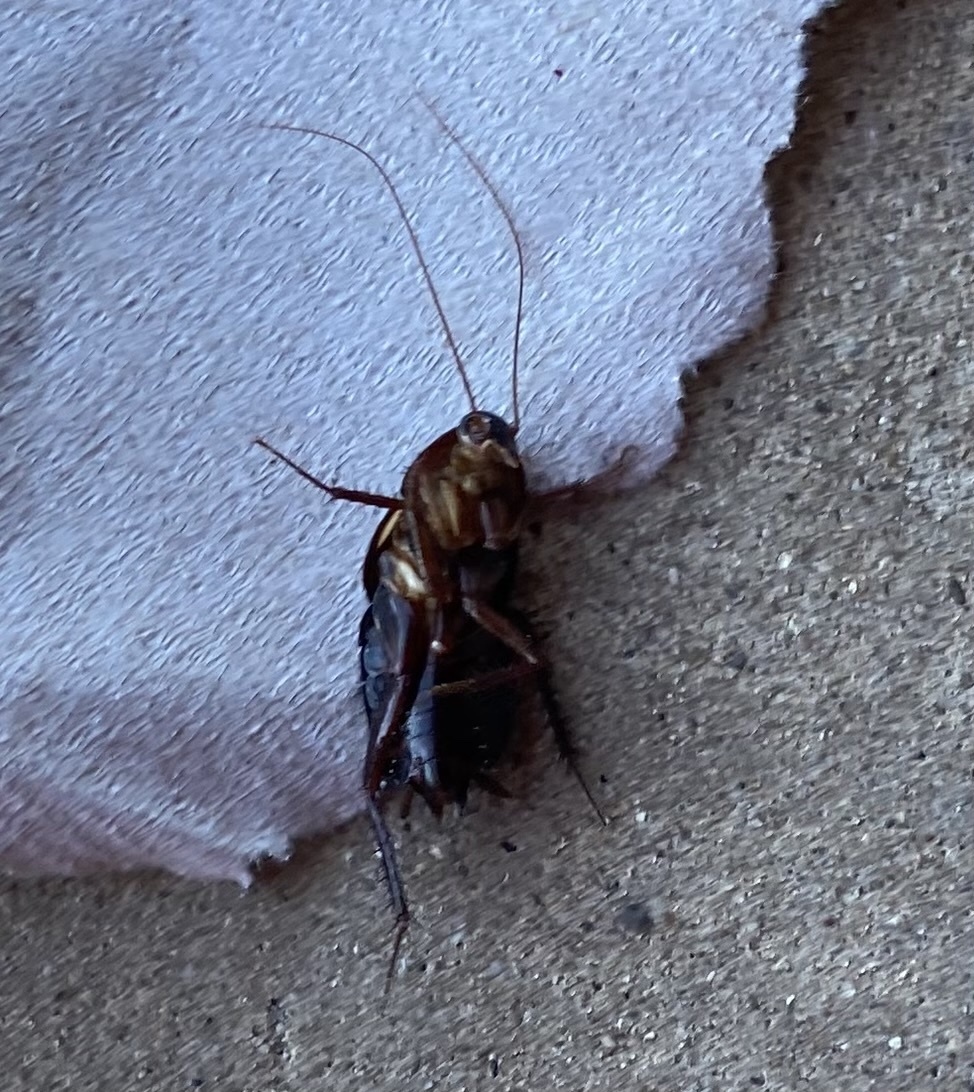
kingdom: Animalia
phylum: Arthropoda
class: Insecta
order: Blattodea
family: Blattidae
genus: Periplaneta
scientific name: Periplaneta lateralis
